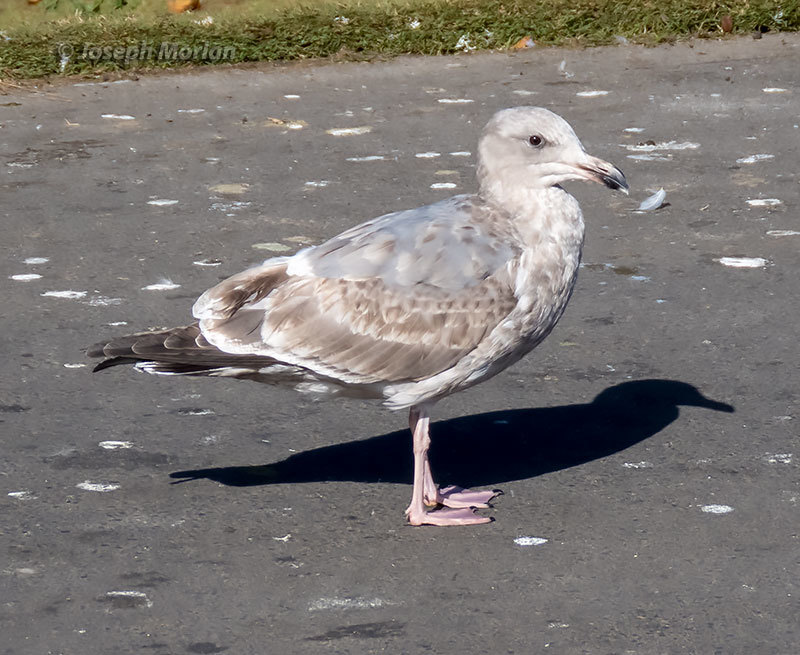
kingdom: Animalia
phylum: Chordata
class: Aves
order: Charadriiformes
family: Laridae
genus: Larus
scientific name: Larus
